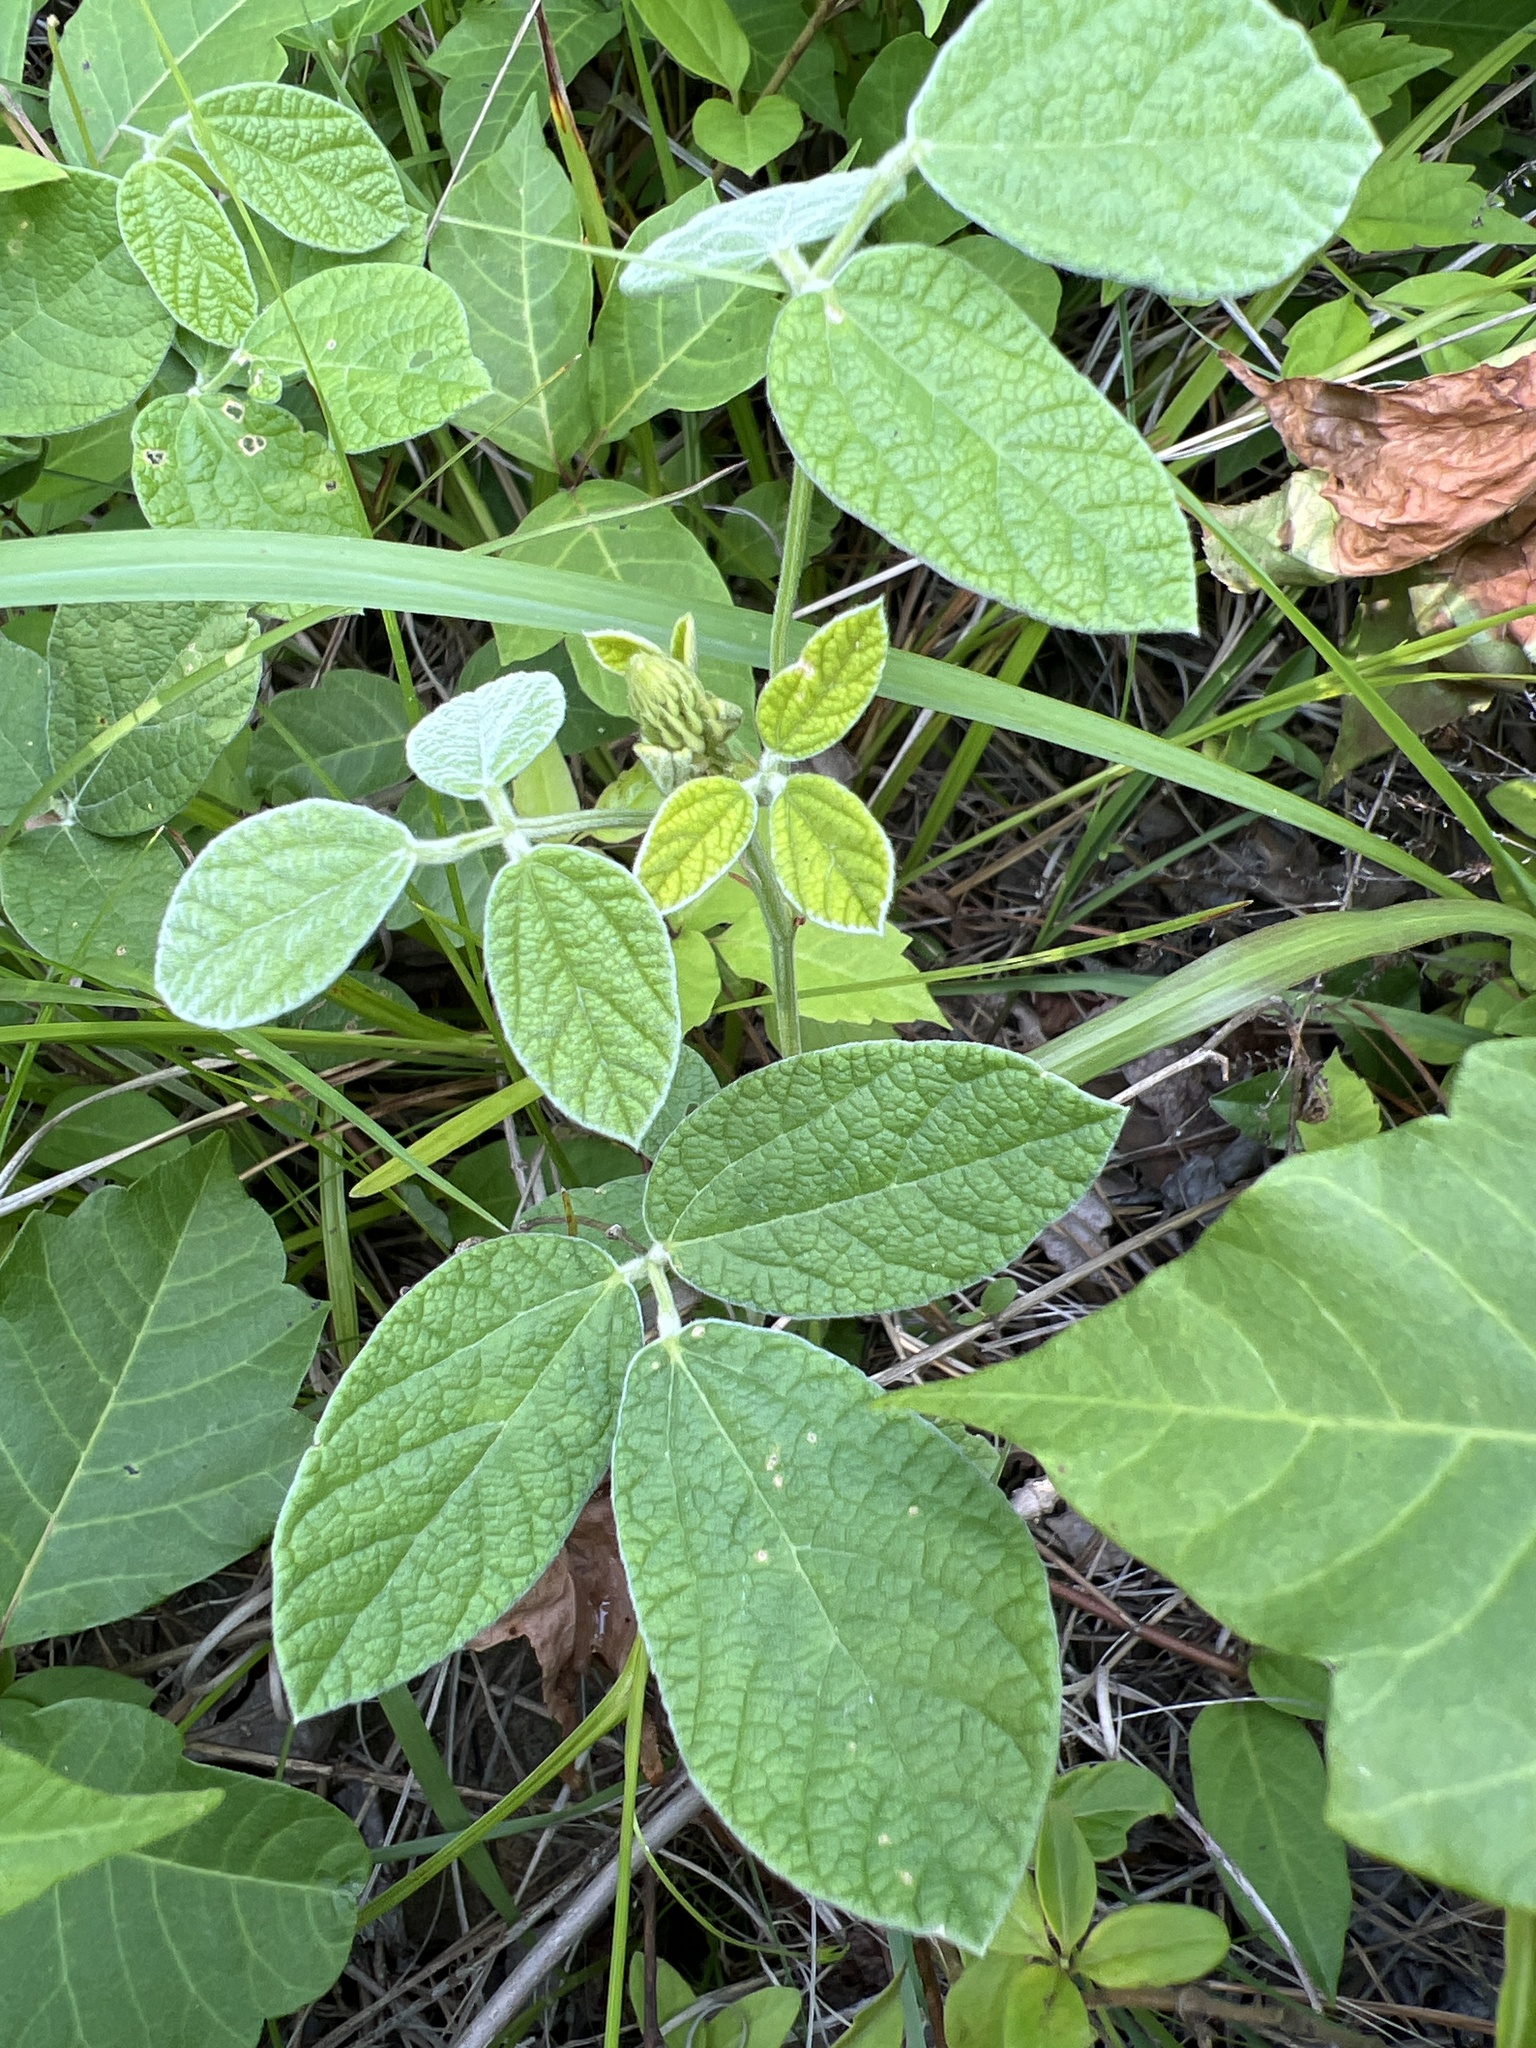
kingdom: Plantae
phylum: Tracheophyta
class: Magnoliopsida
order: Fabales
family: Fabaceae
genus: Rhynchosia
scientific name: Rhynchosia tomentosa
